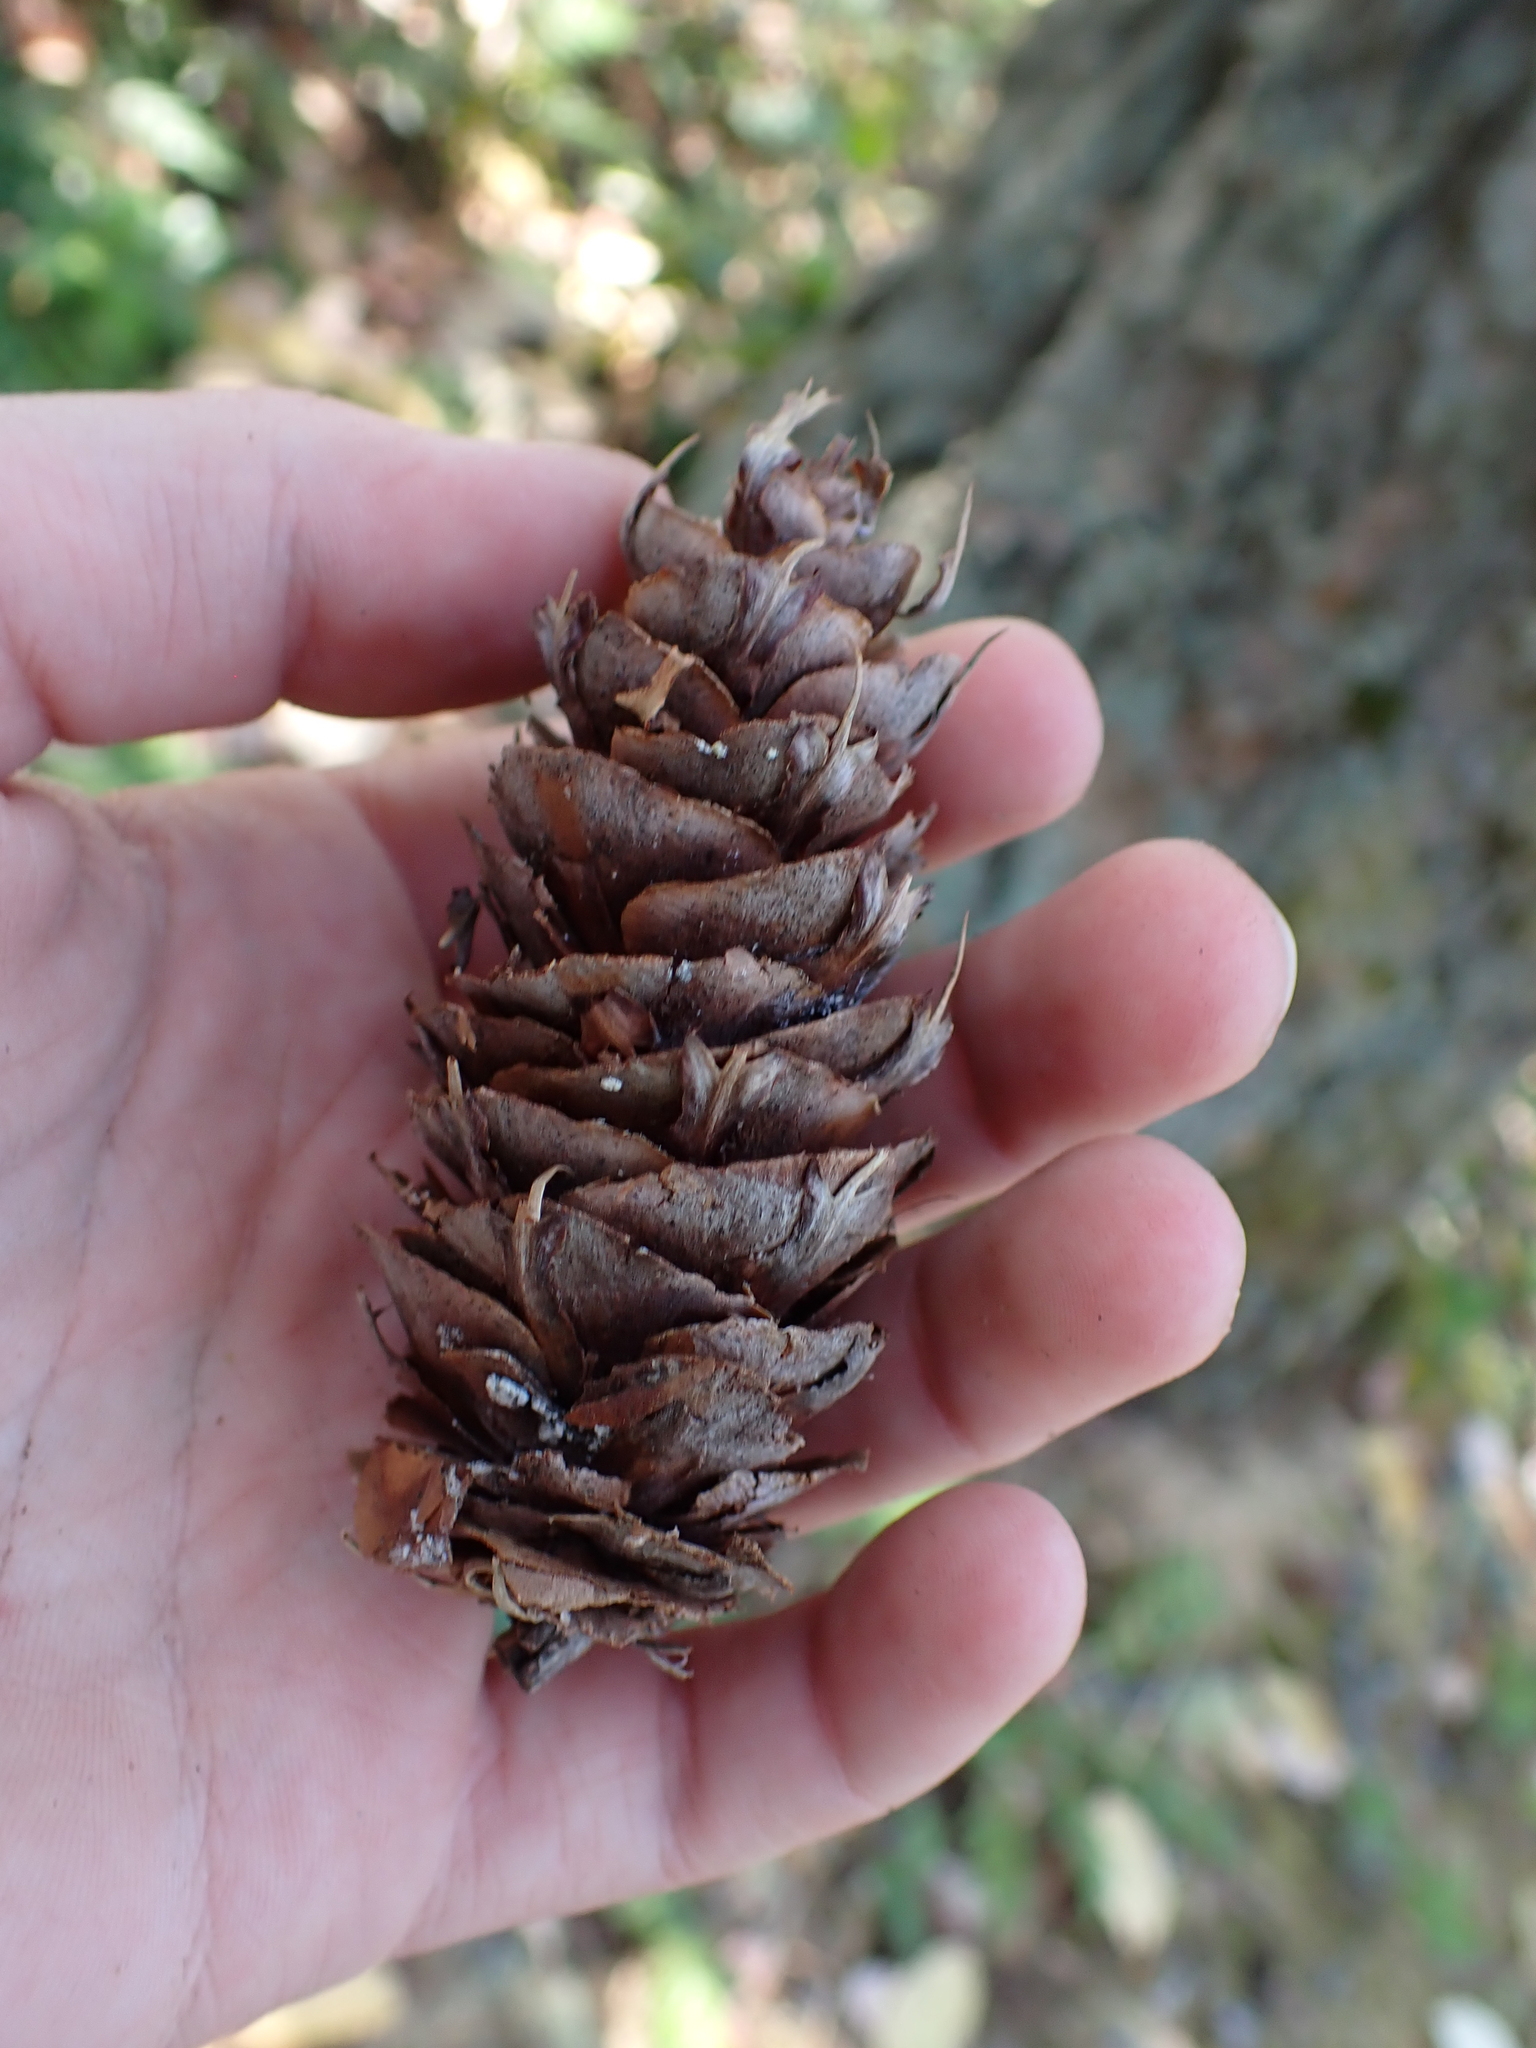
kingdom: Plantae
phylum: Tracheophyta
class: Pinopsida
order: Pinales
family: Pinaceae
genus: Pseudotsuga
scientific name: Pseudotsuga menziesii
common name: Douglas fir
